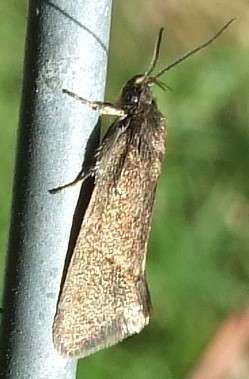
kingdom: Animalia
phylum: Arthropoda
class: Insecta
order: Lepidoptera
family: Oecophoridae
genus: Leistomorpha
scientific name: Leistomorpha brontoscopa
